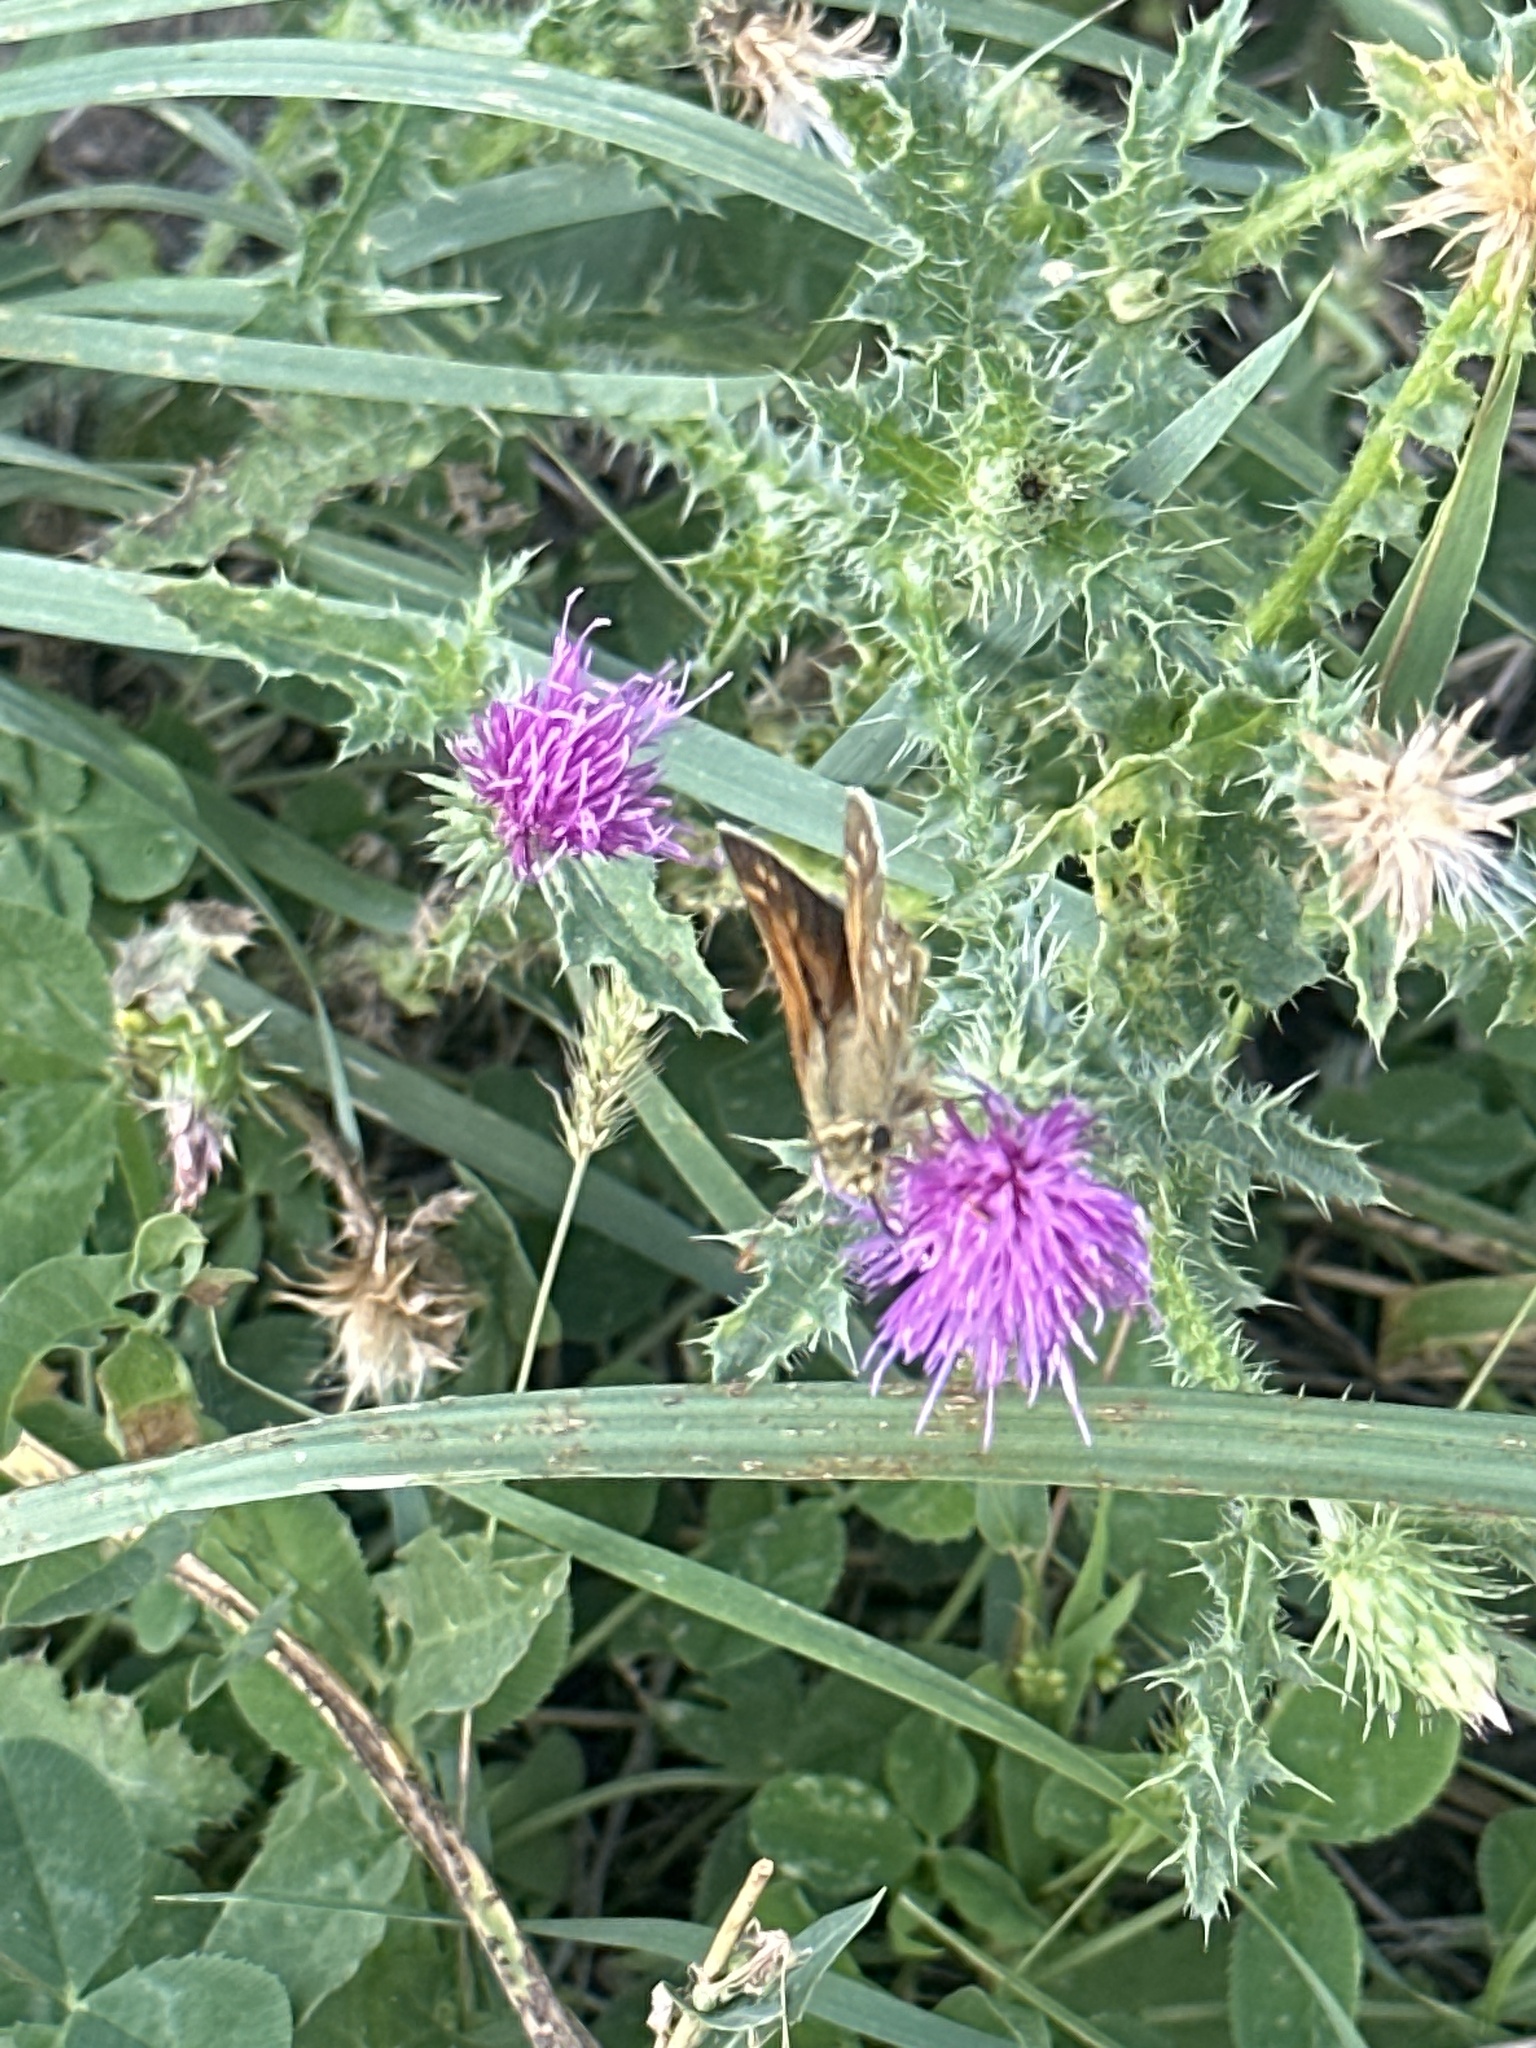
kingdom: Animalia
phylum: Arthropoda
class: Insecta
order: Lepidoptera
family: Hesperiidae
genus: Hesperia
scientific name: Hesperia comma
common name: Common branded skipper
